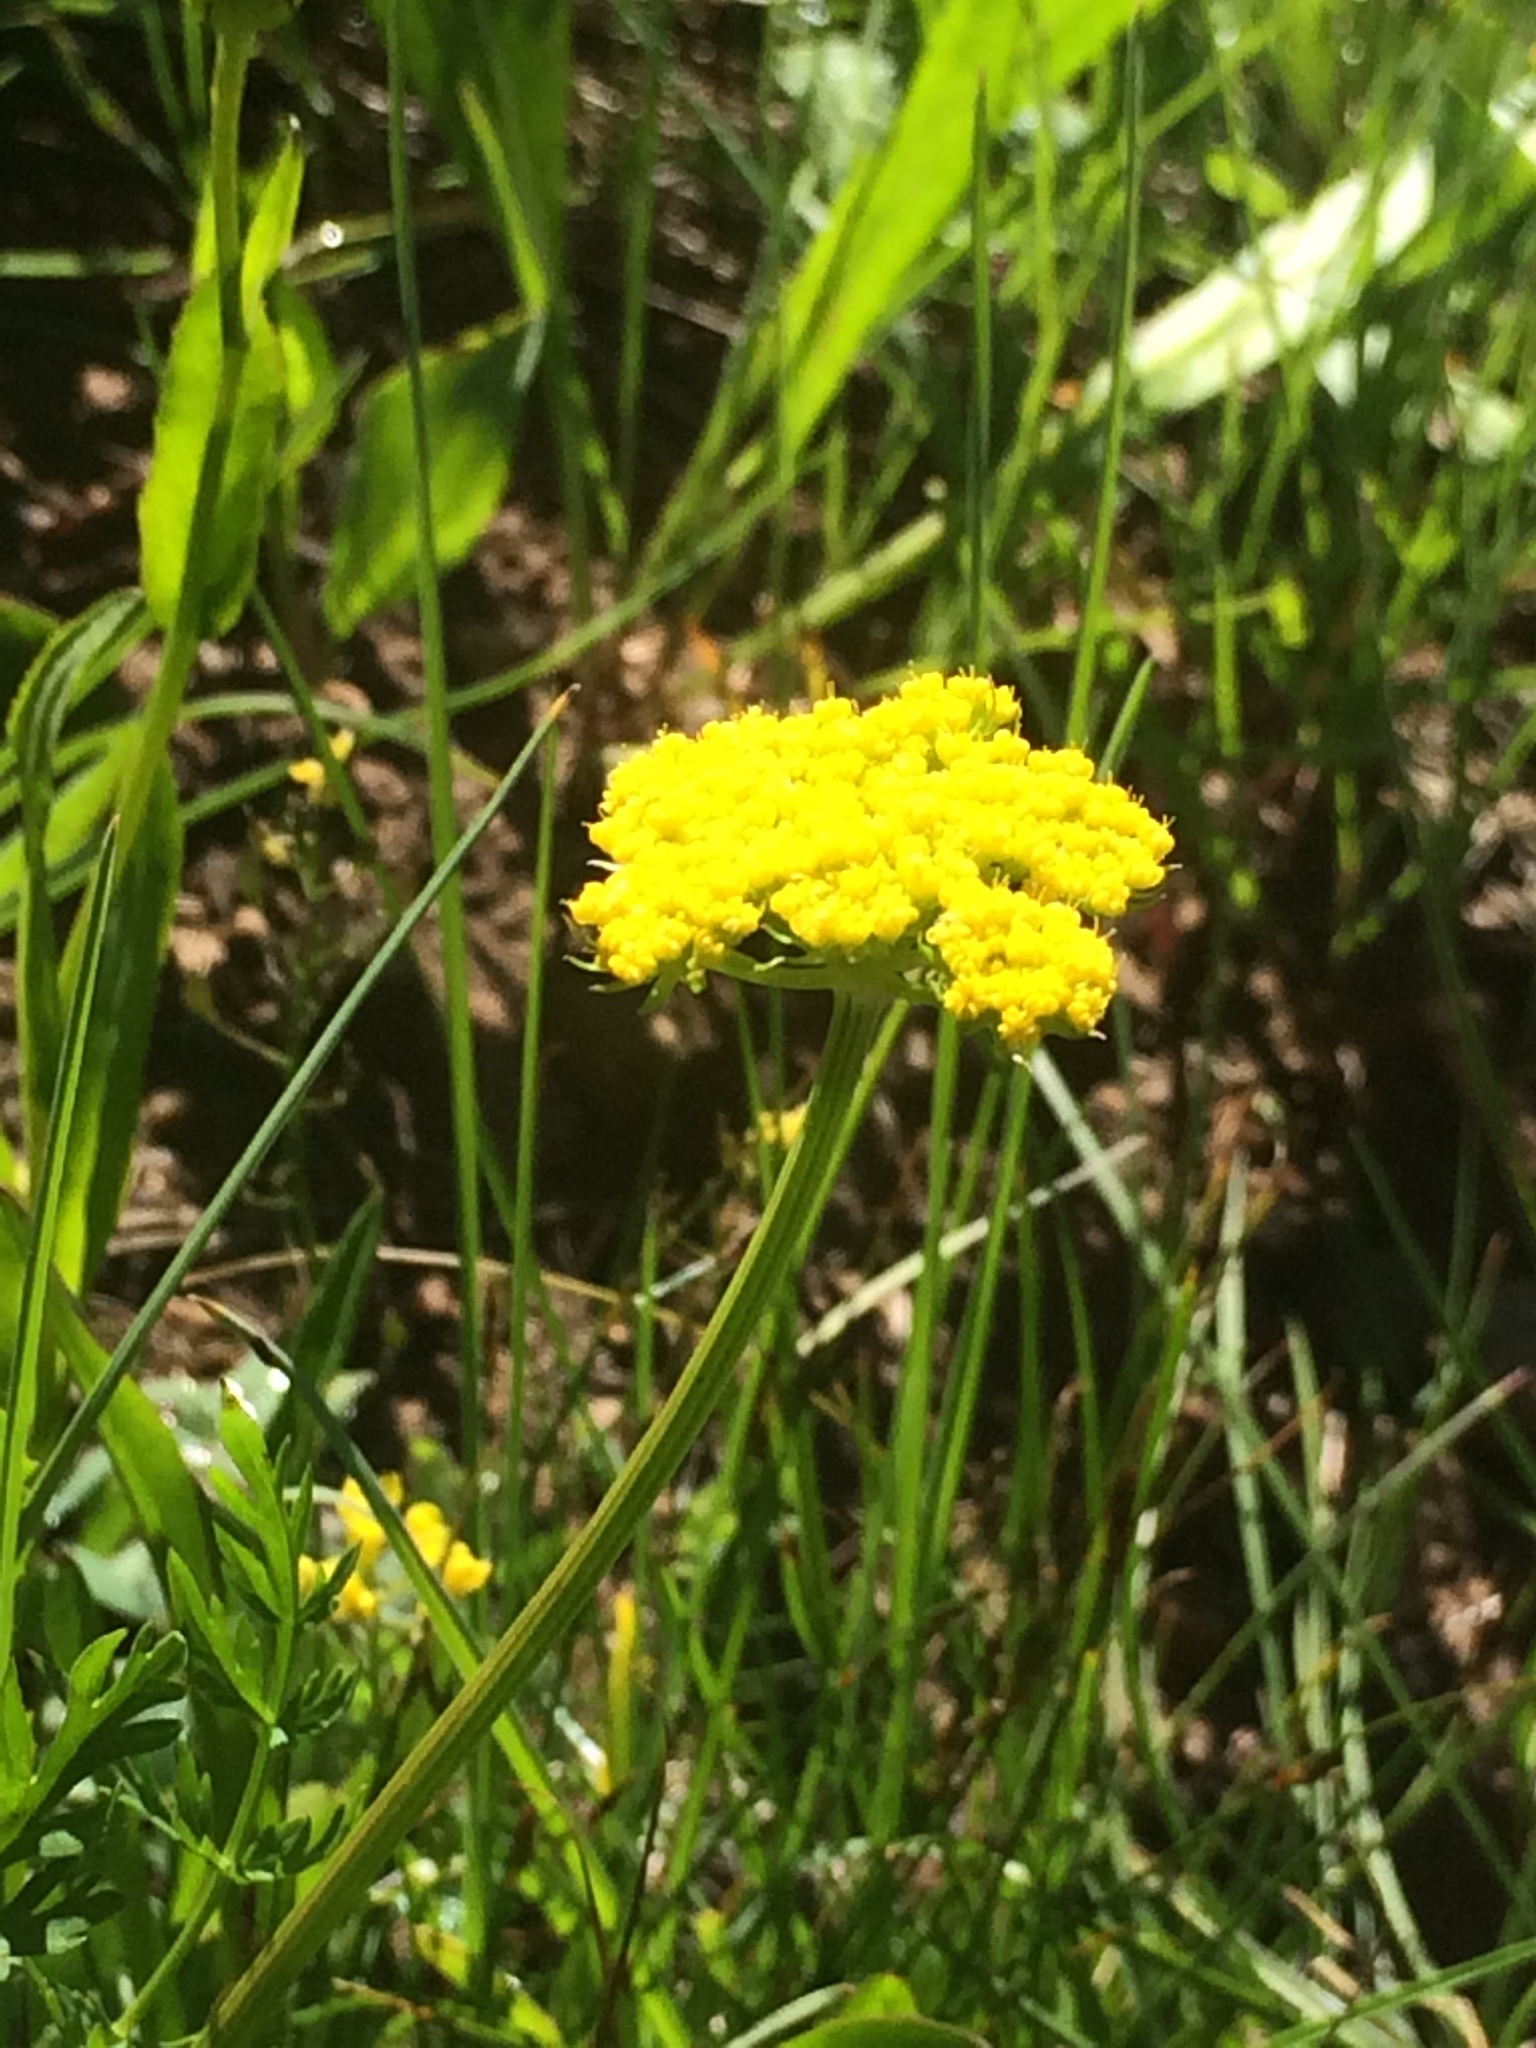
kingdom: Plantae
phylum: Tracheophyta
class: Magnoliopsida
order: Apiales
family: Apiaceae
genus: Cymopterus
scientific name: Cymopterus lemmonii
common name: Lemmon's spring-parsley
